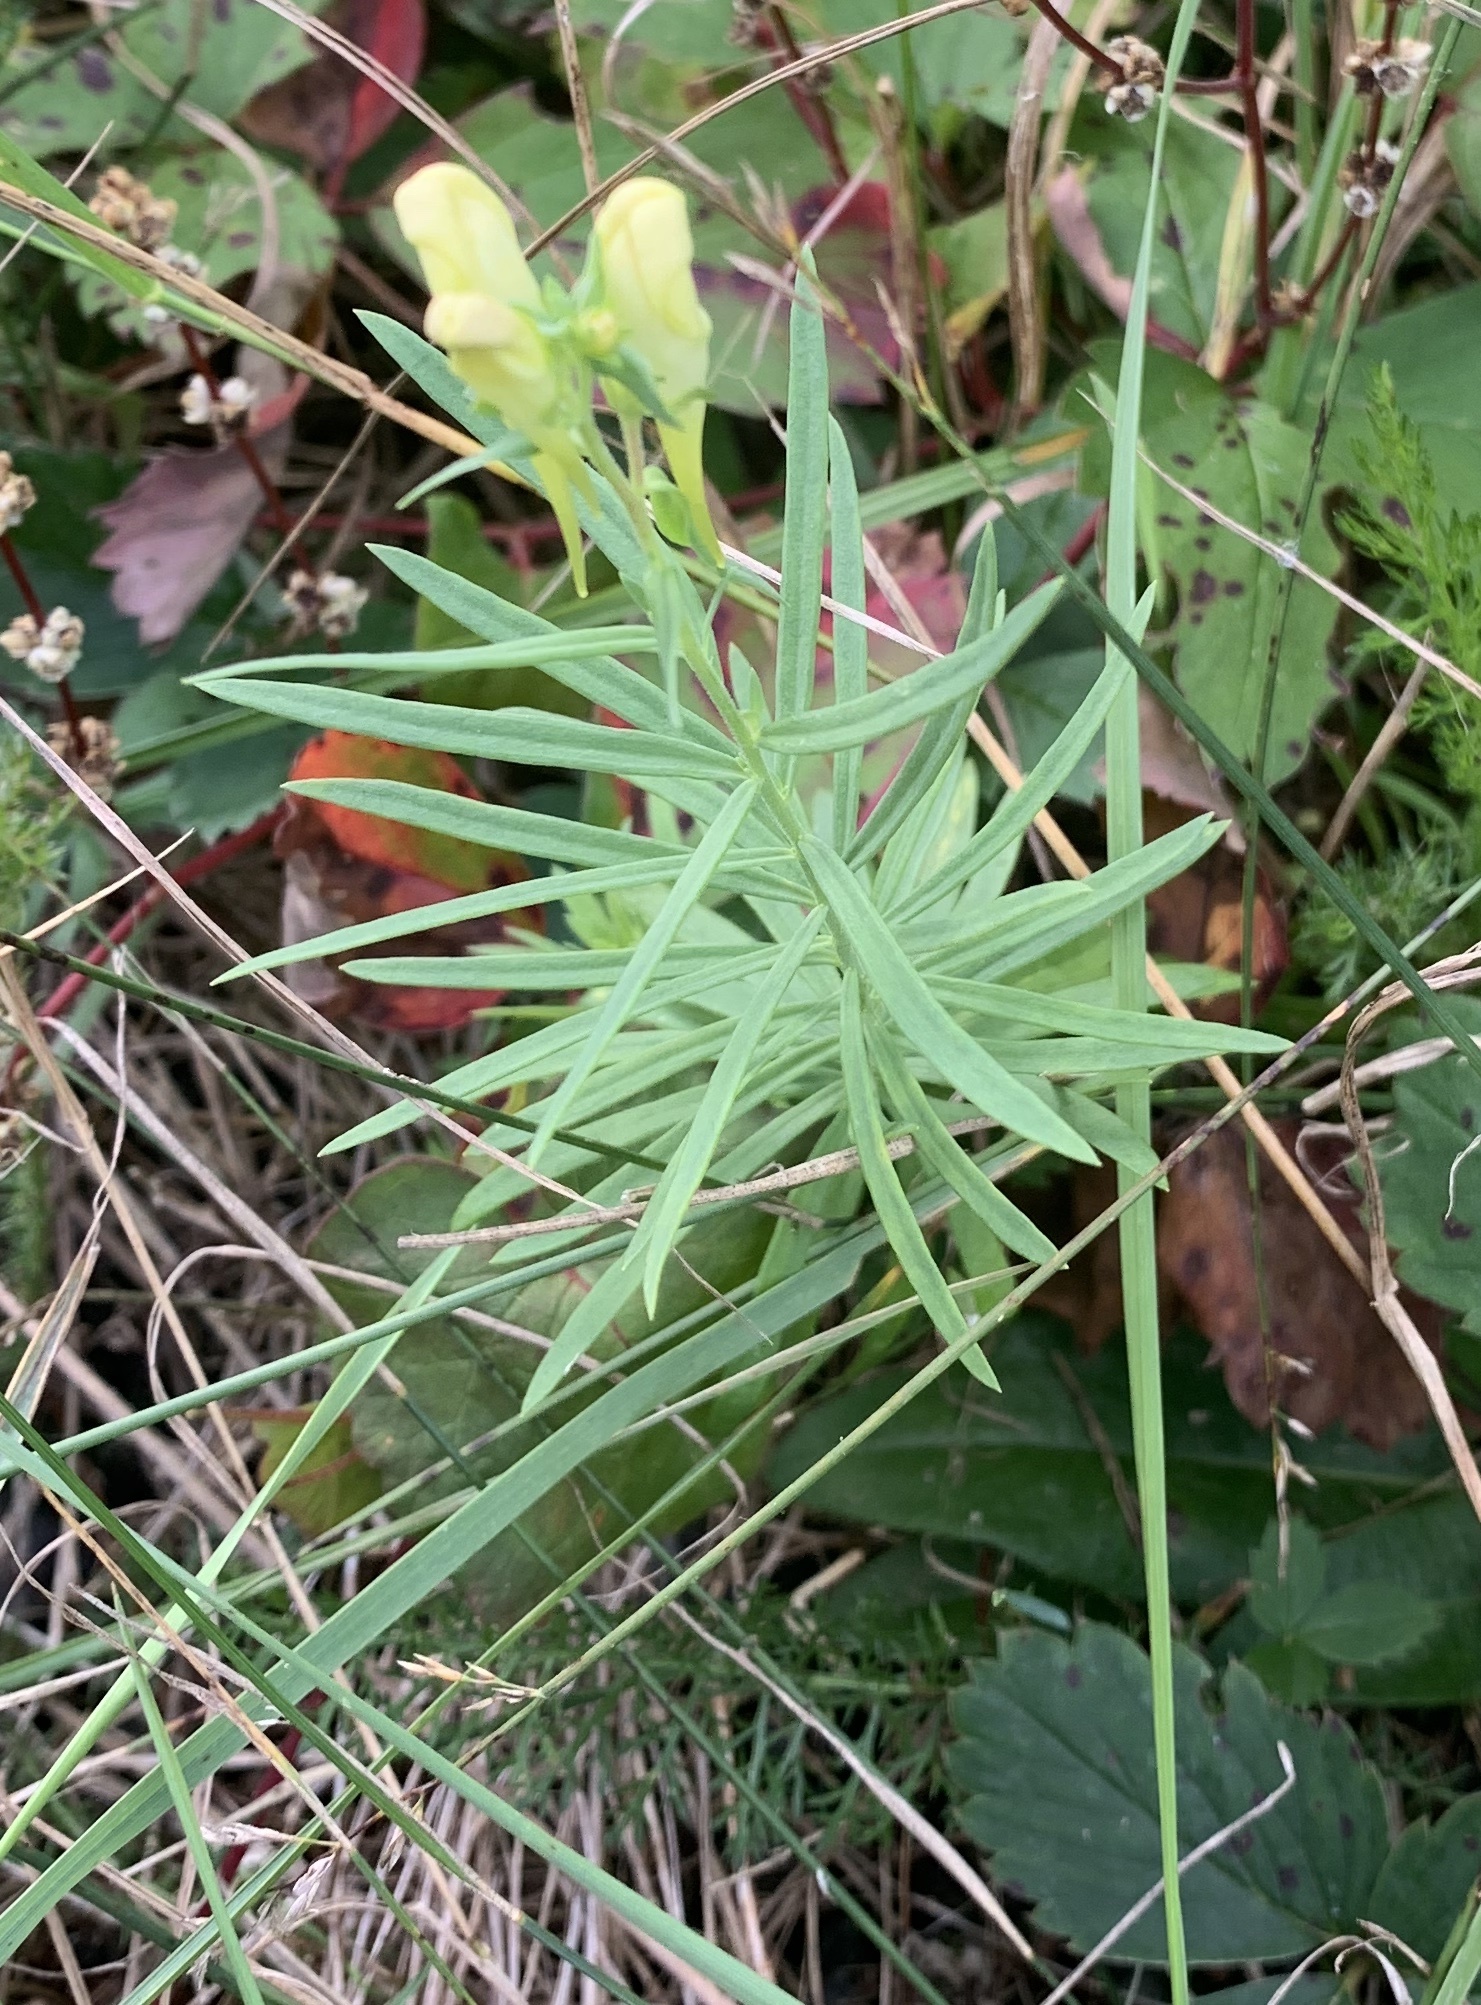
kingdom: Plantae
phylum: Tracheophyta
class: Magnoliopsida
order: Lamiales
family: Plantaginaceae
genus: Linaria
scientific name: Linaria vulgaris
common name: Butter and eggs
